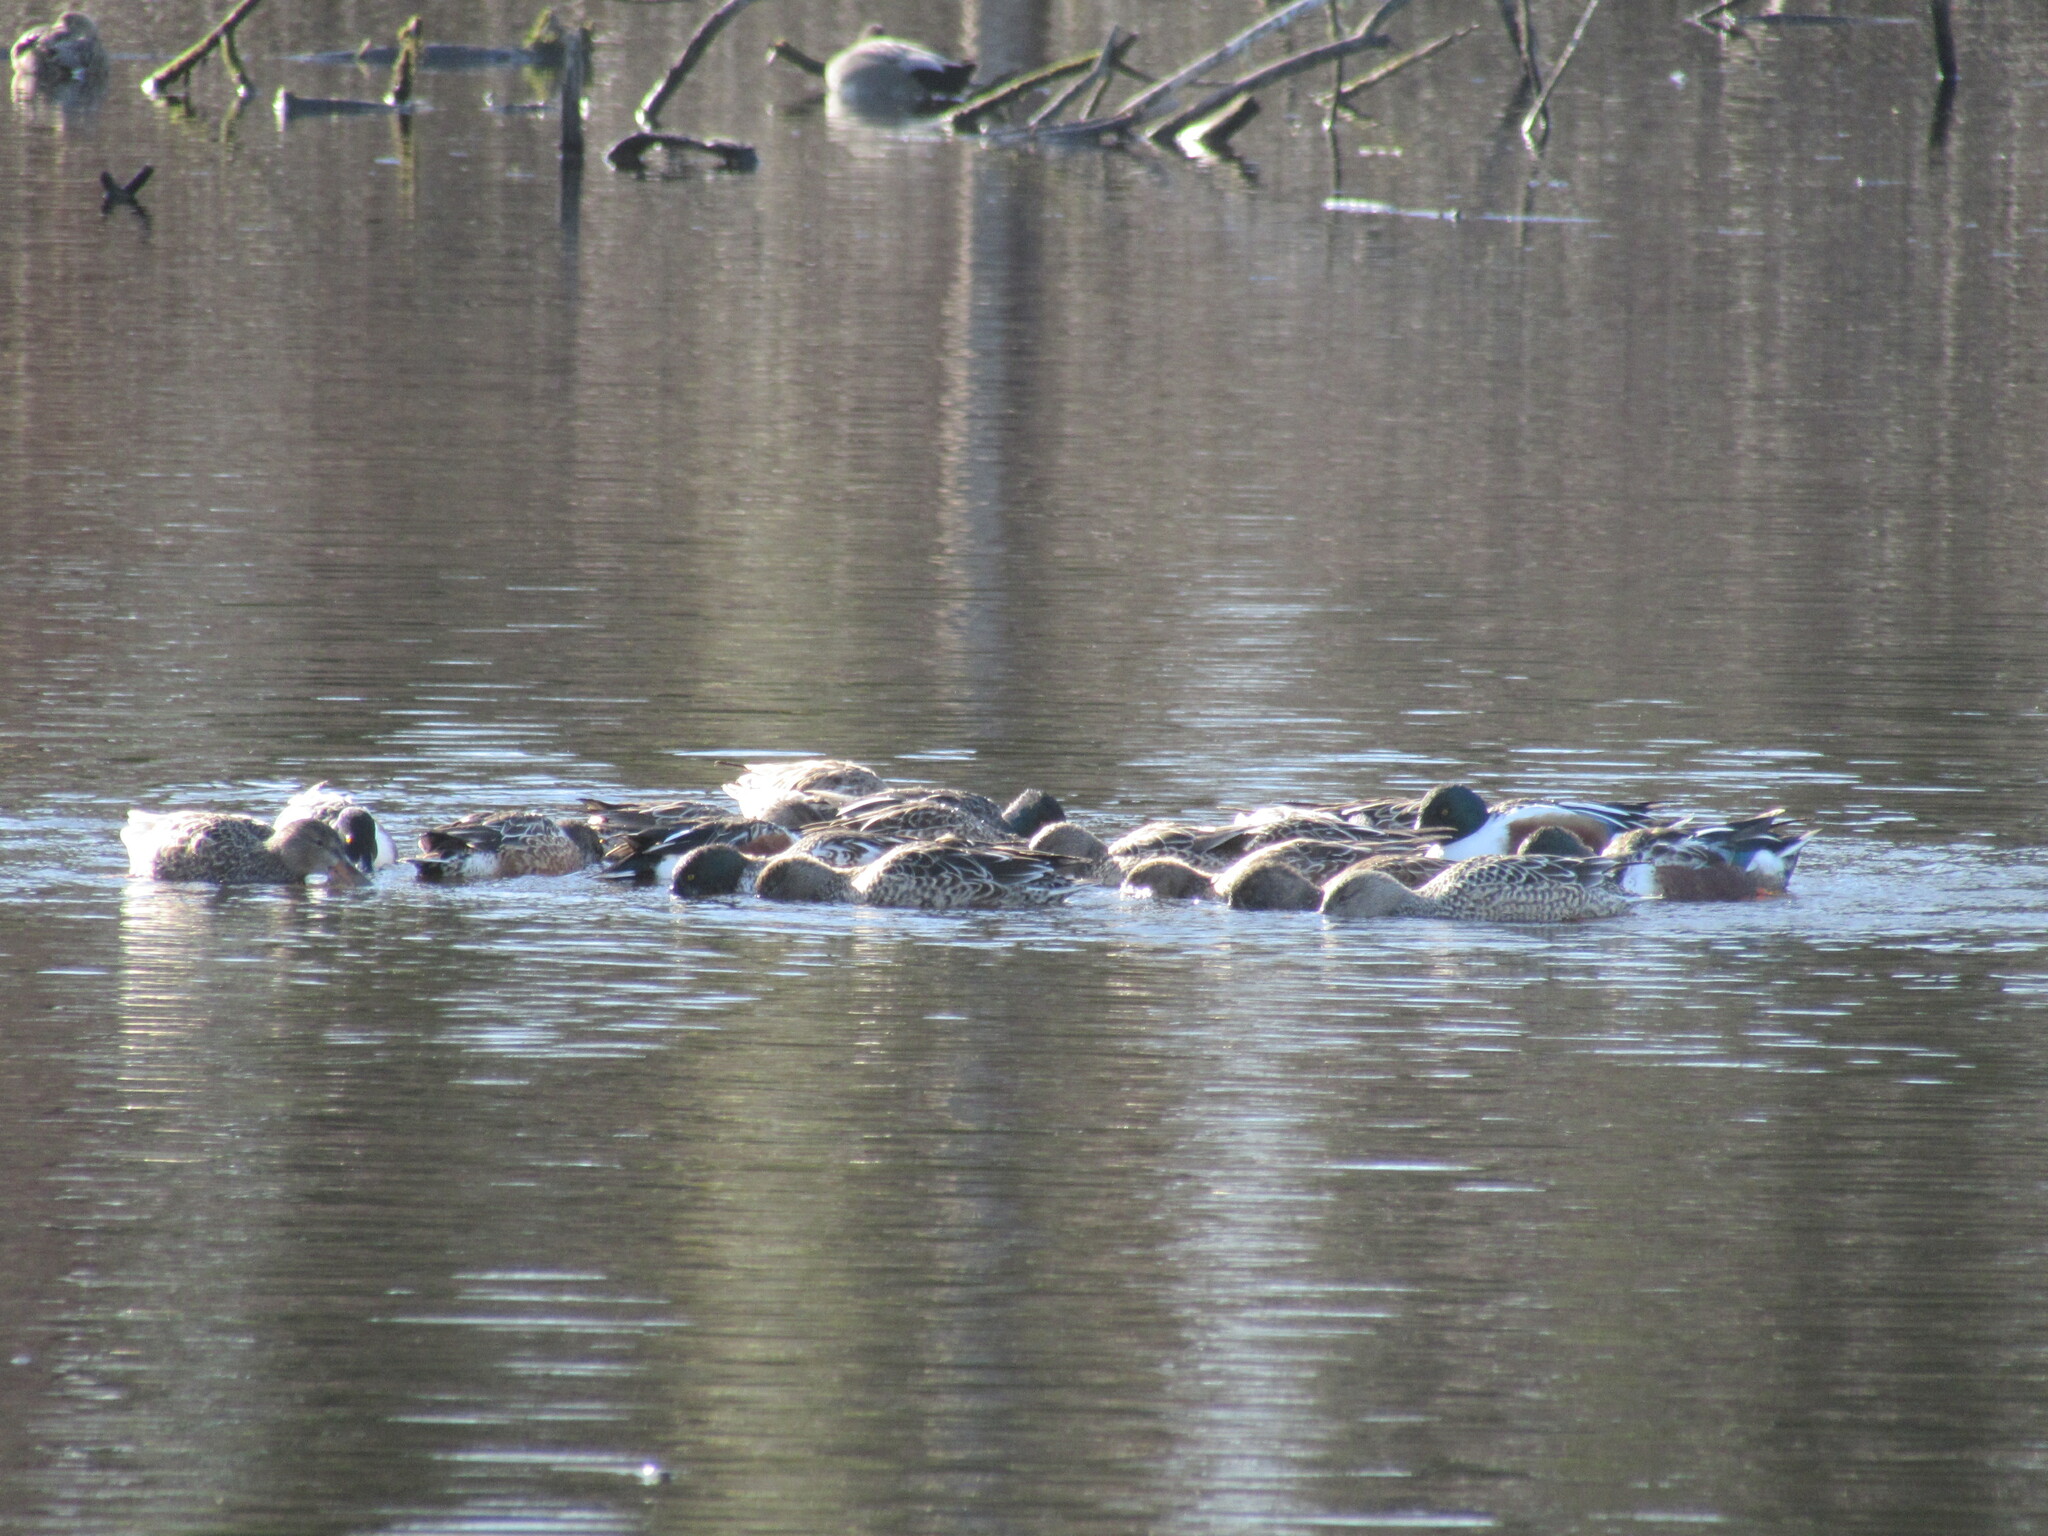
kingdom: Animalia
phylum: Chordata
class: Aves
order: Anseriformes
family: Anatidae
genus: Spatula
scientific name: Spatula clypeata
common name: Northern shoveler
